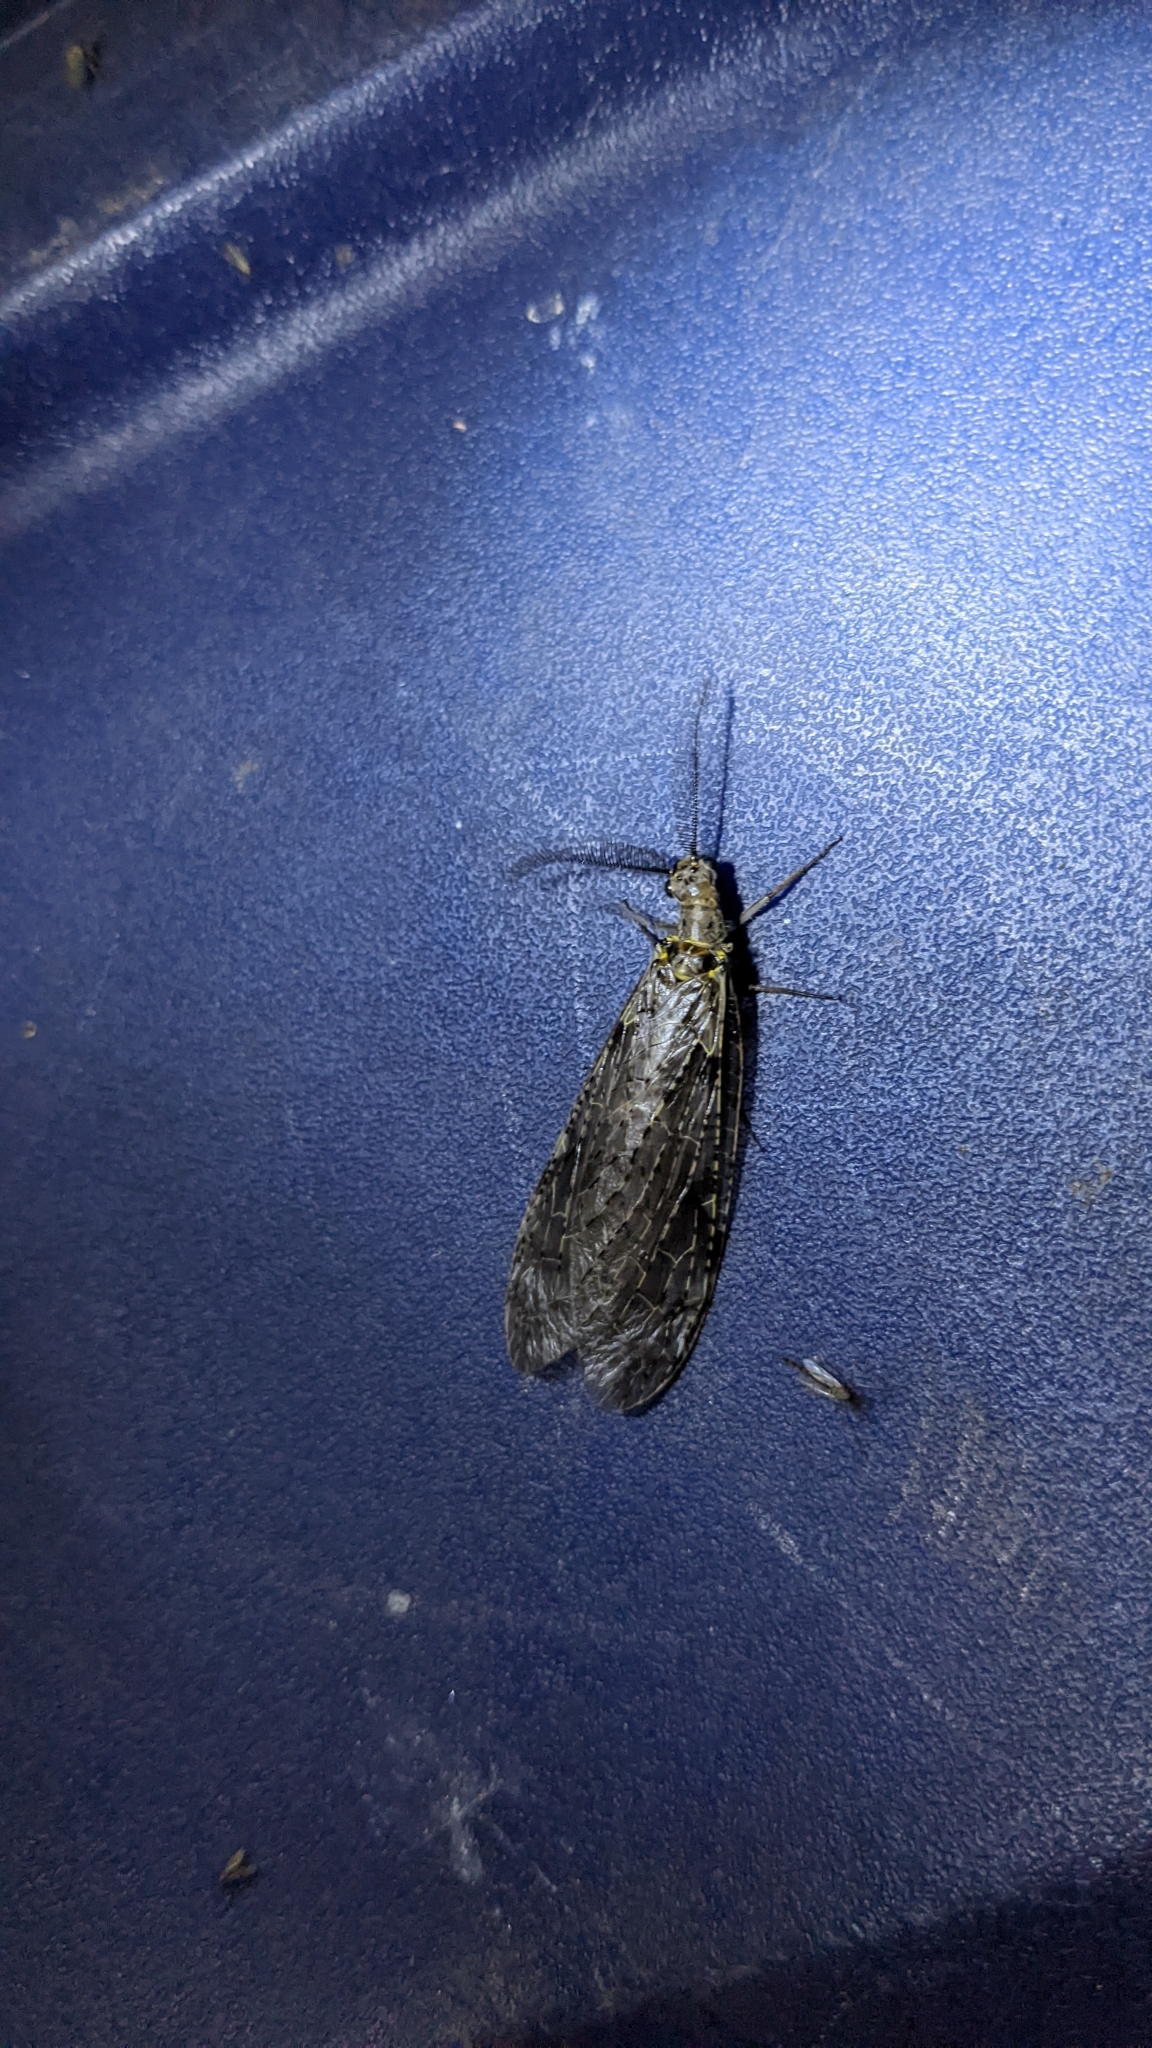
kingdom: Animalia
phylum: Arthropoda
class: Insecta
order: Megaloptera
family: Corydalidae
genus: Chauliodes
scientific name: Chauliodes rastricornis
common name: Spring fishfly
